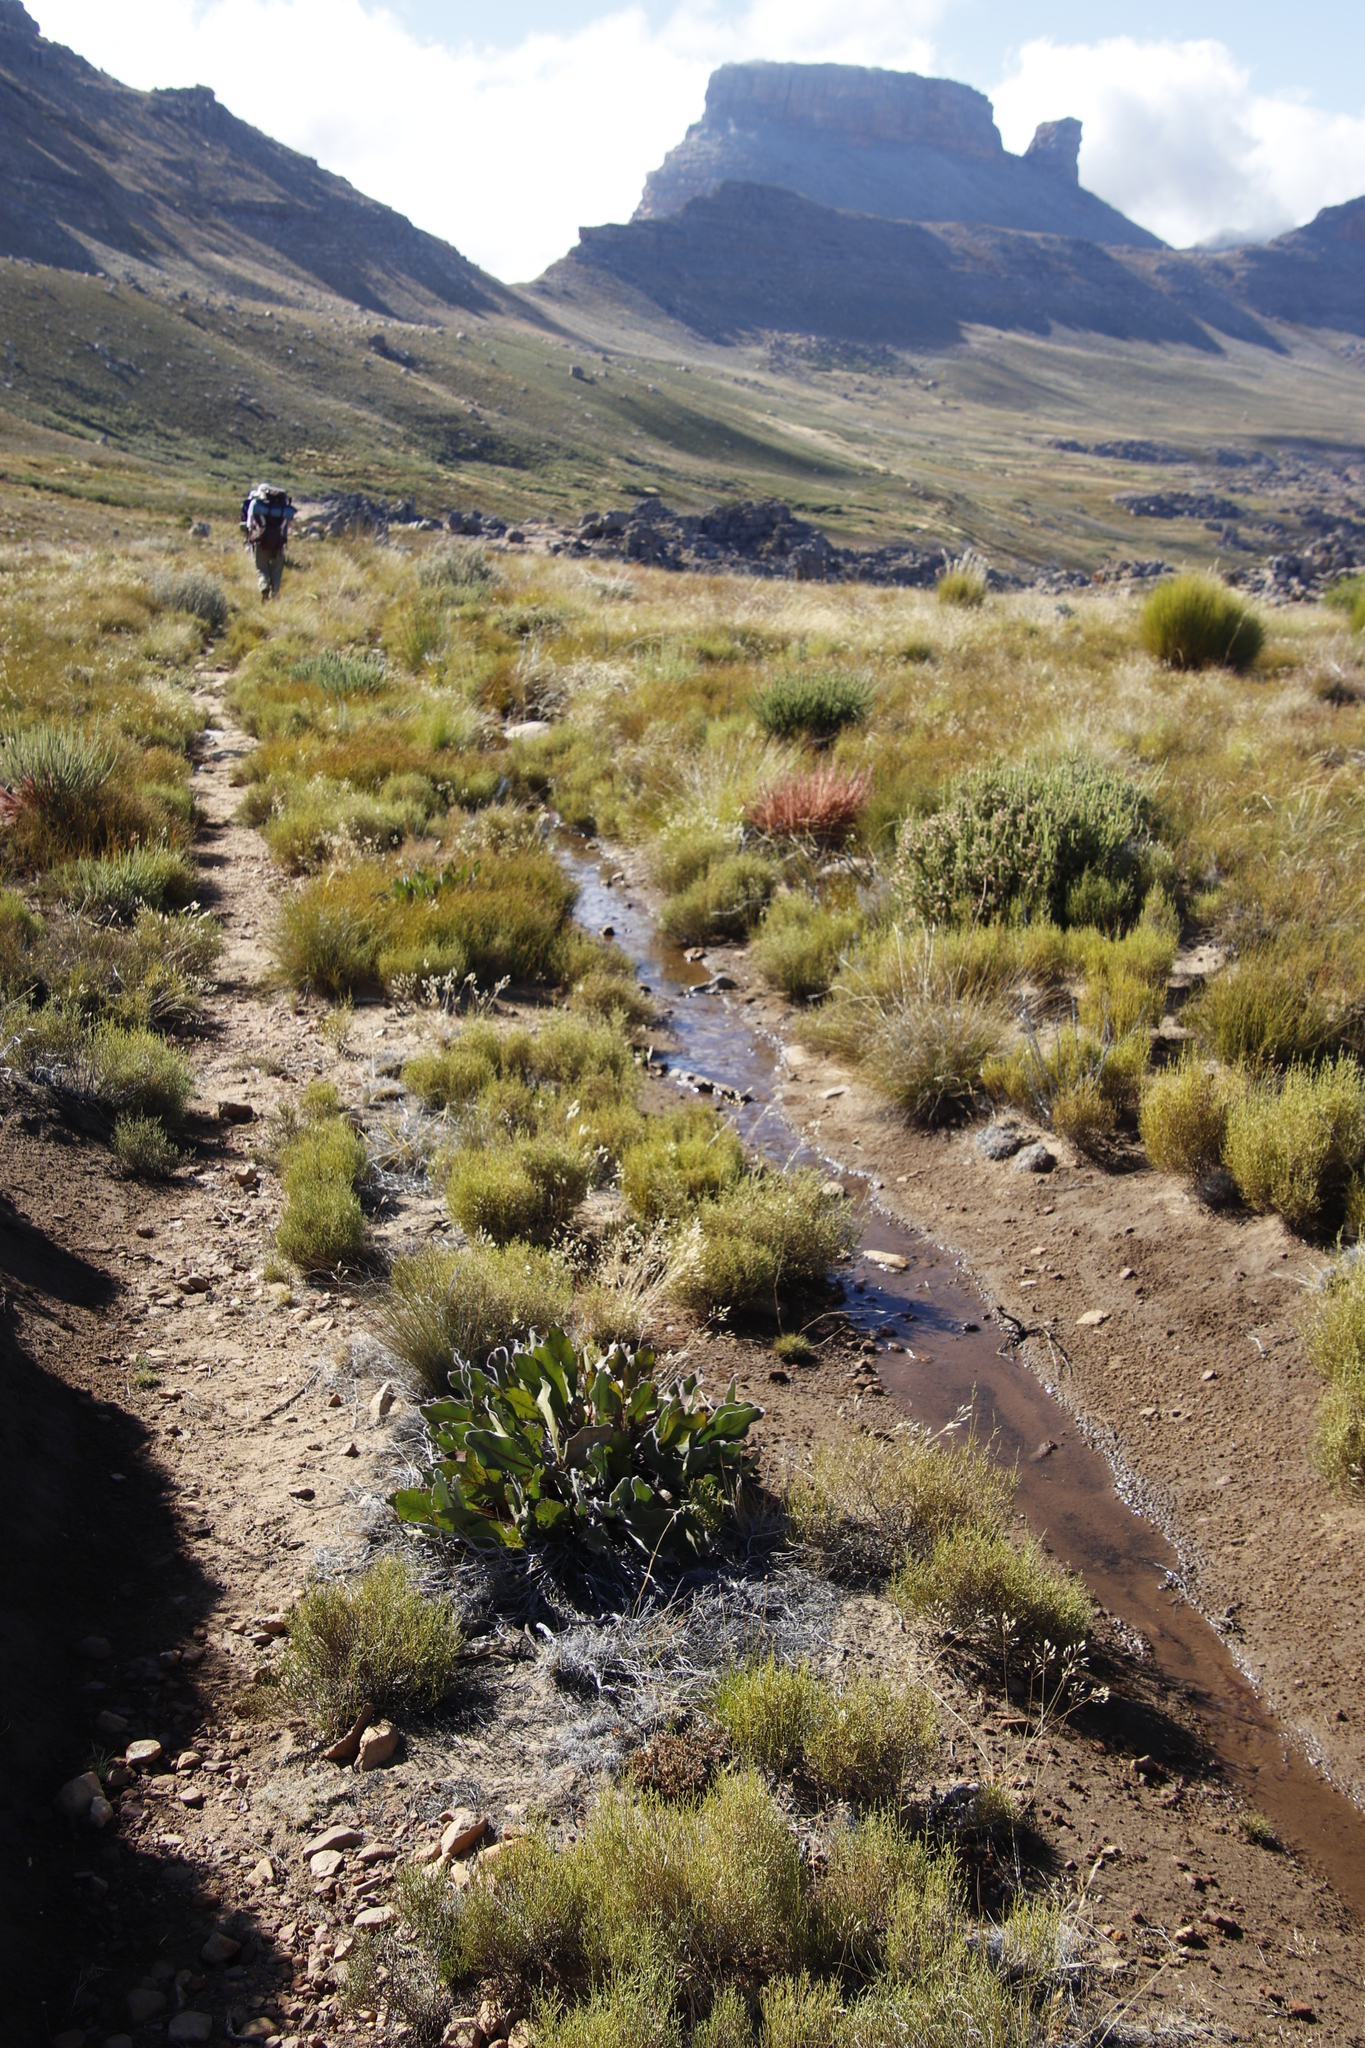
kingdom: Plantae
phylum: Tracheophyta
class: Magnoliopsida
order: Proteales
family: Proteaceae
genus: Protea
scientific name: Protea scolopendriifolia
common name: Harts-tongue-fern sugarbush
